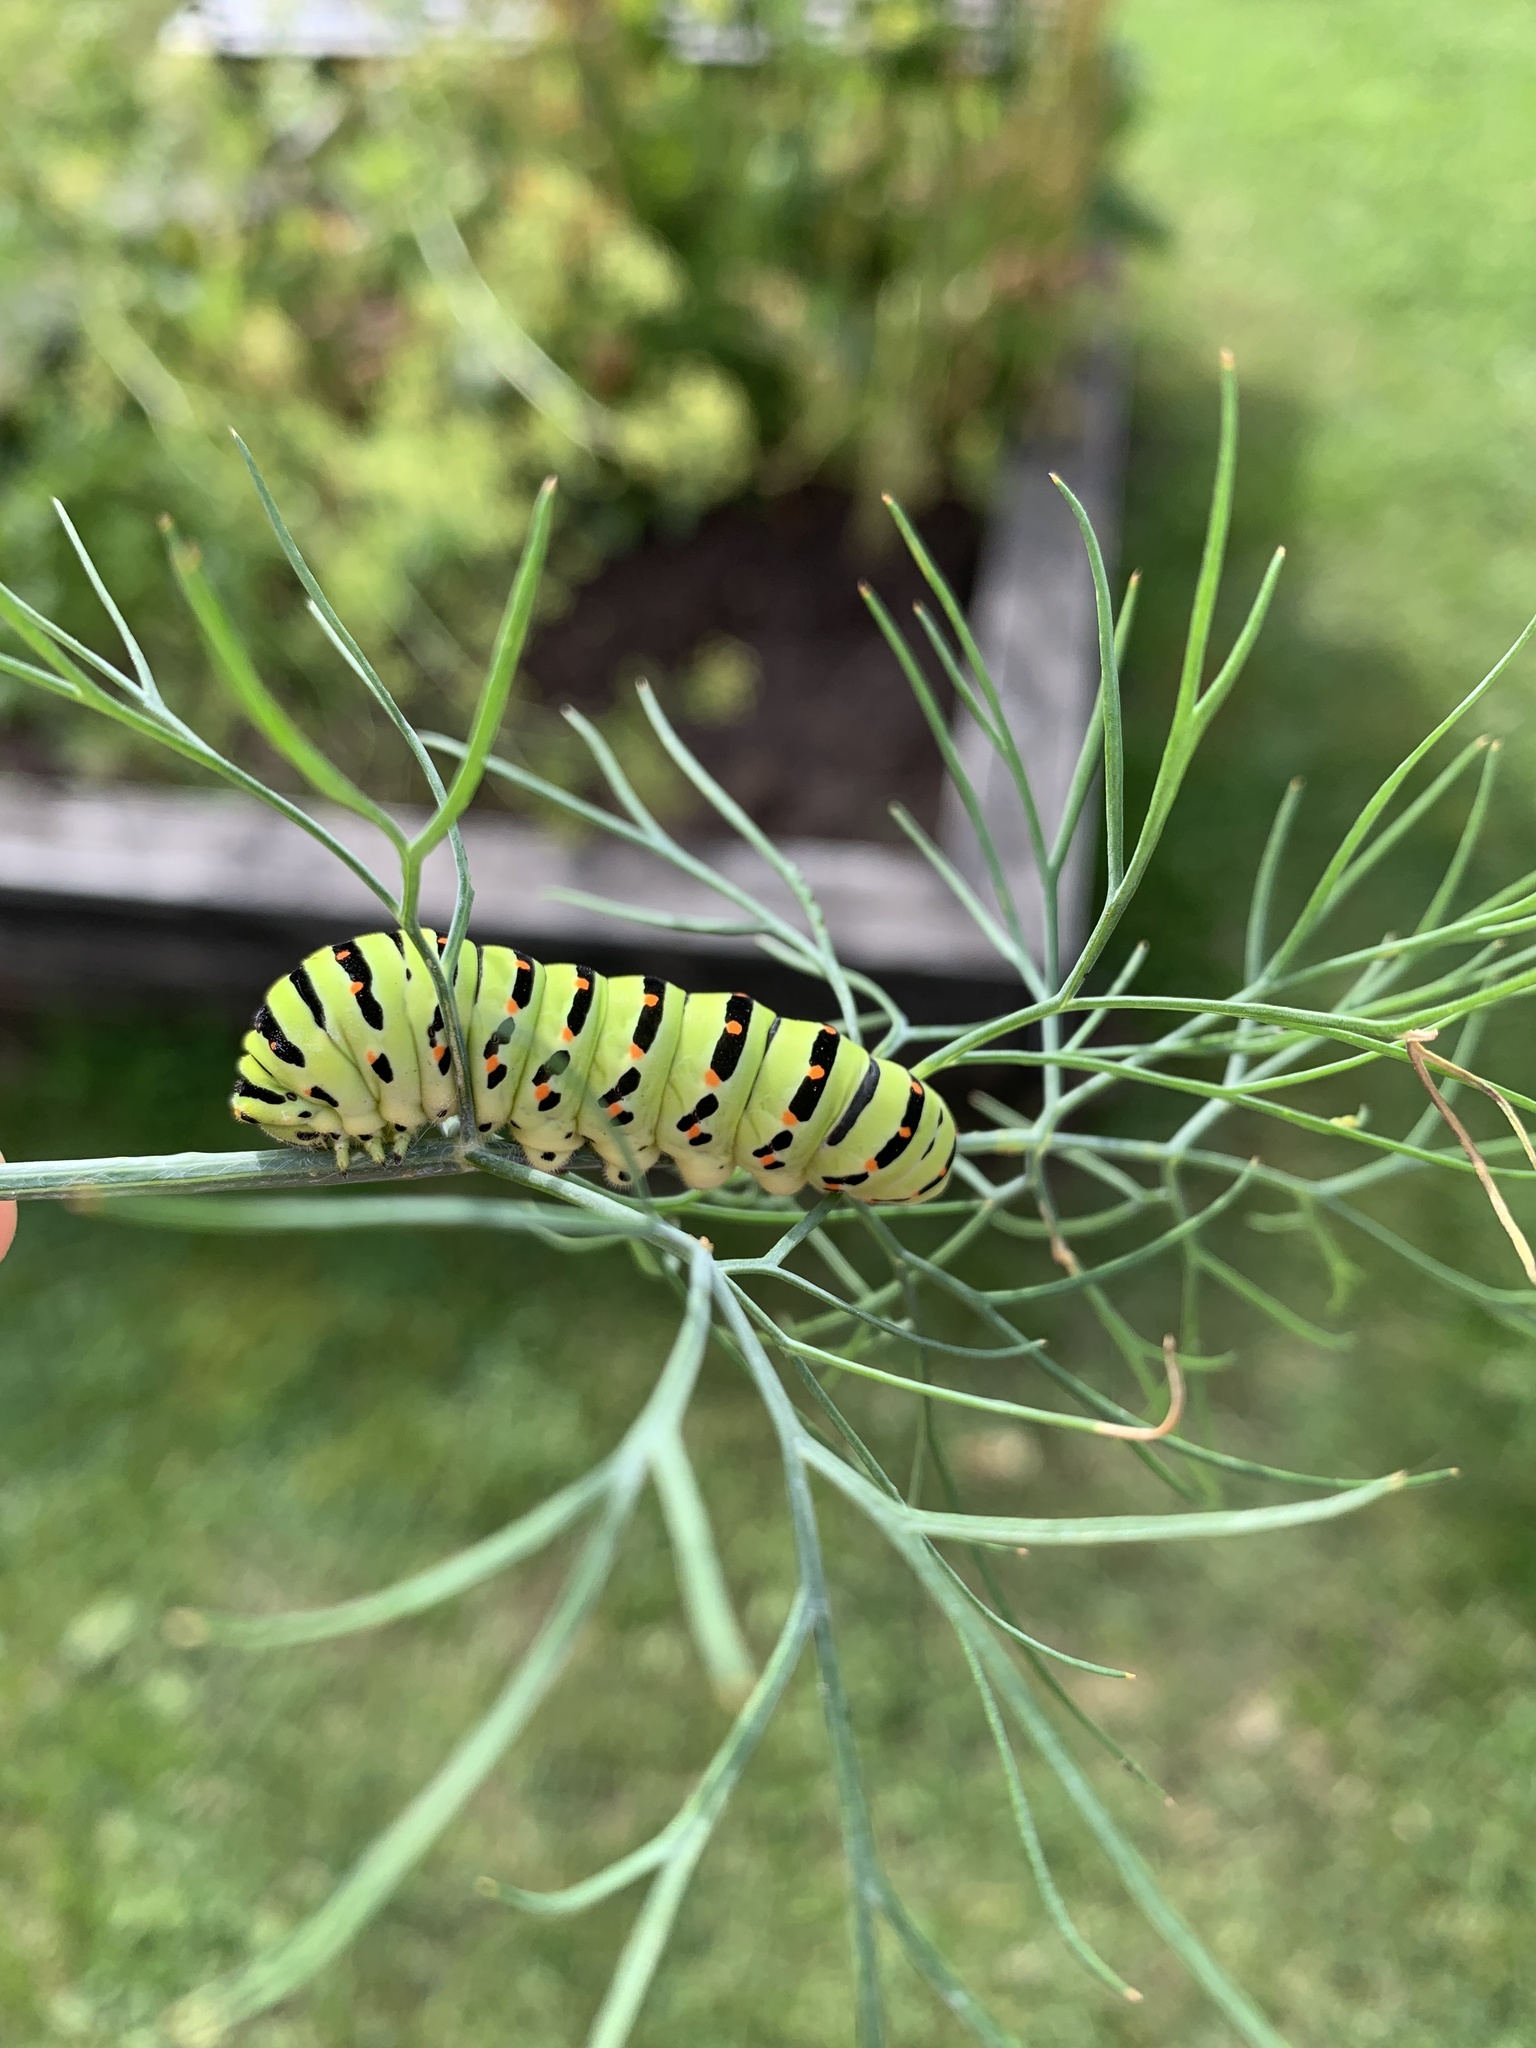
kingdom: Animalia
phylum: Arthropoda
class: Insecta
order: Lepidoptera
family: Papilionidae
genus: Papilio
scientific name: Papilio machaon
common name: Swallowtail
